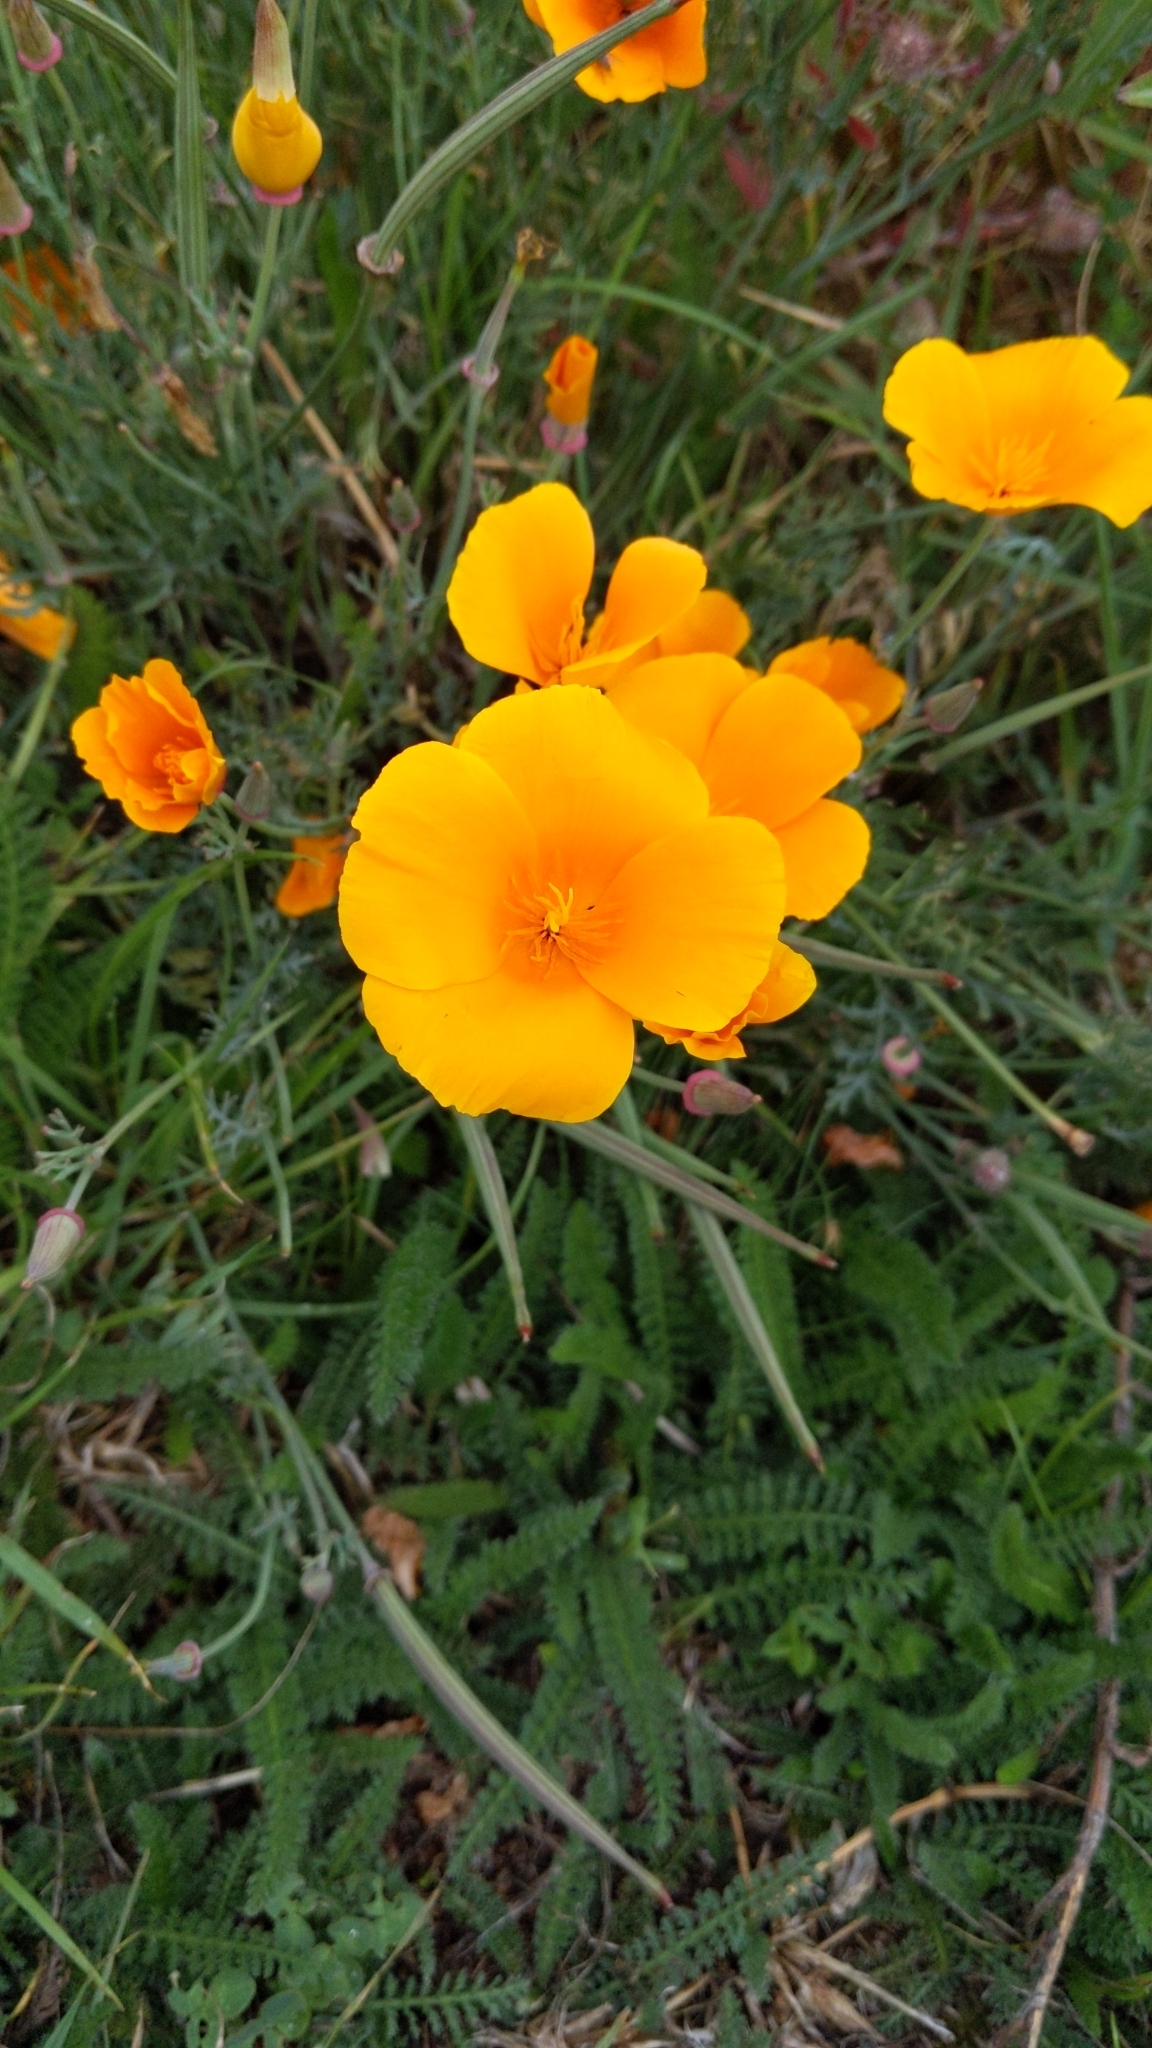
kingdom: Plantae
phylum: Tracheophyta
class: Magnoliopsida
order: Ranunculales
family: Papaveraceae
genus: Eschscholzia
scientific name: Eschscholzia californica
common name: California poppy
